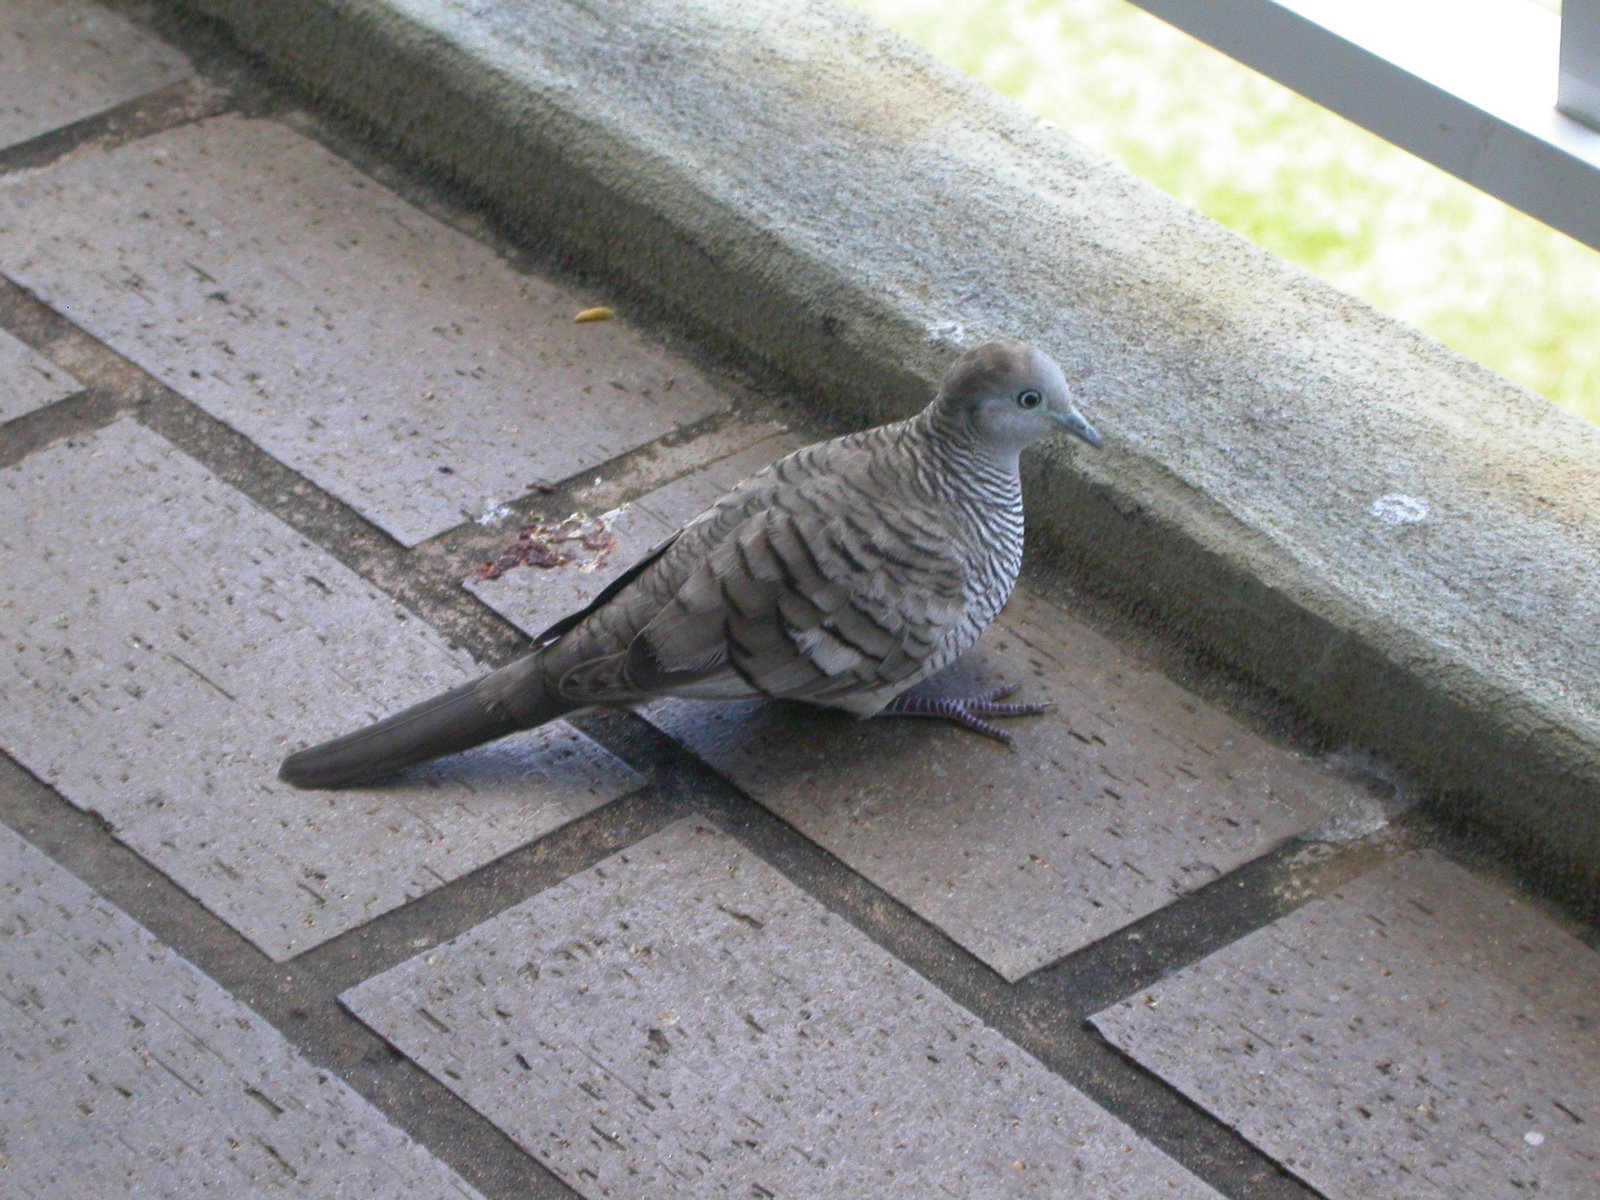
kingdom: Animalia
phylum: Chordata
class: Aves
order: Columbiformes
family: Columbidae
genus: Geopelia
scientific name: Geopelia striata
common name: Zebra dove
